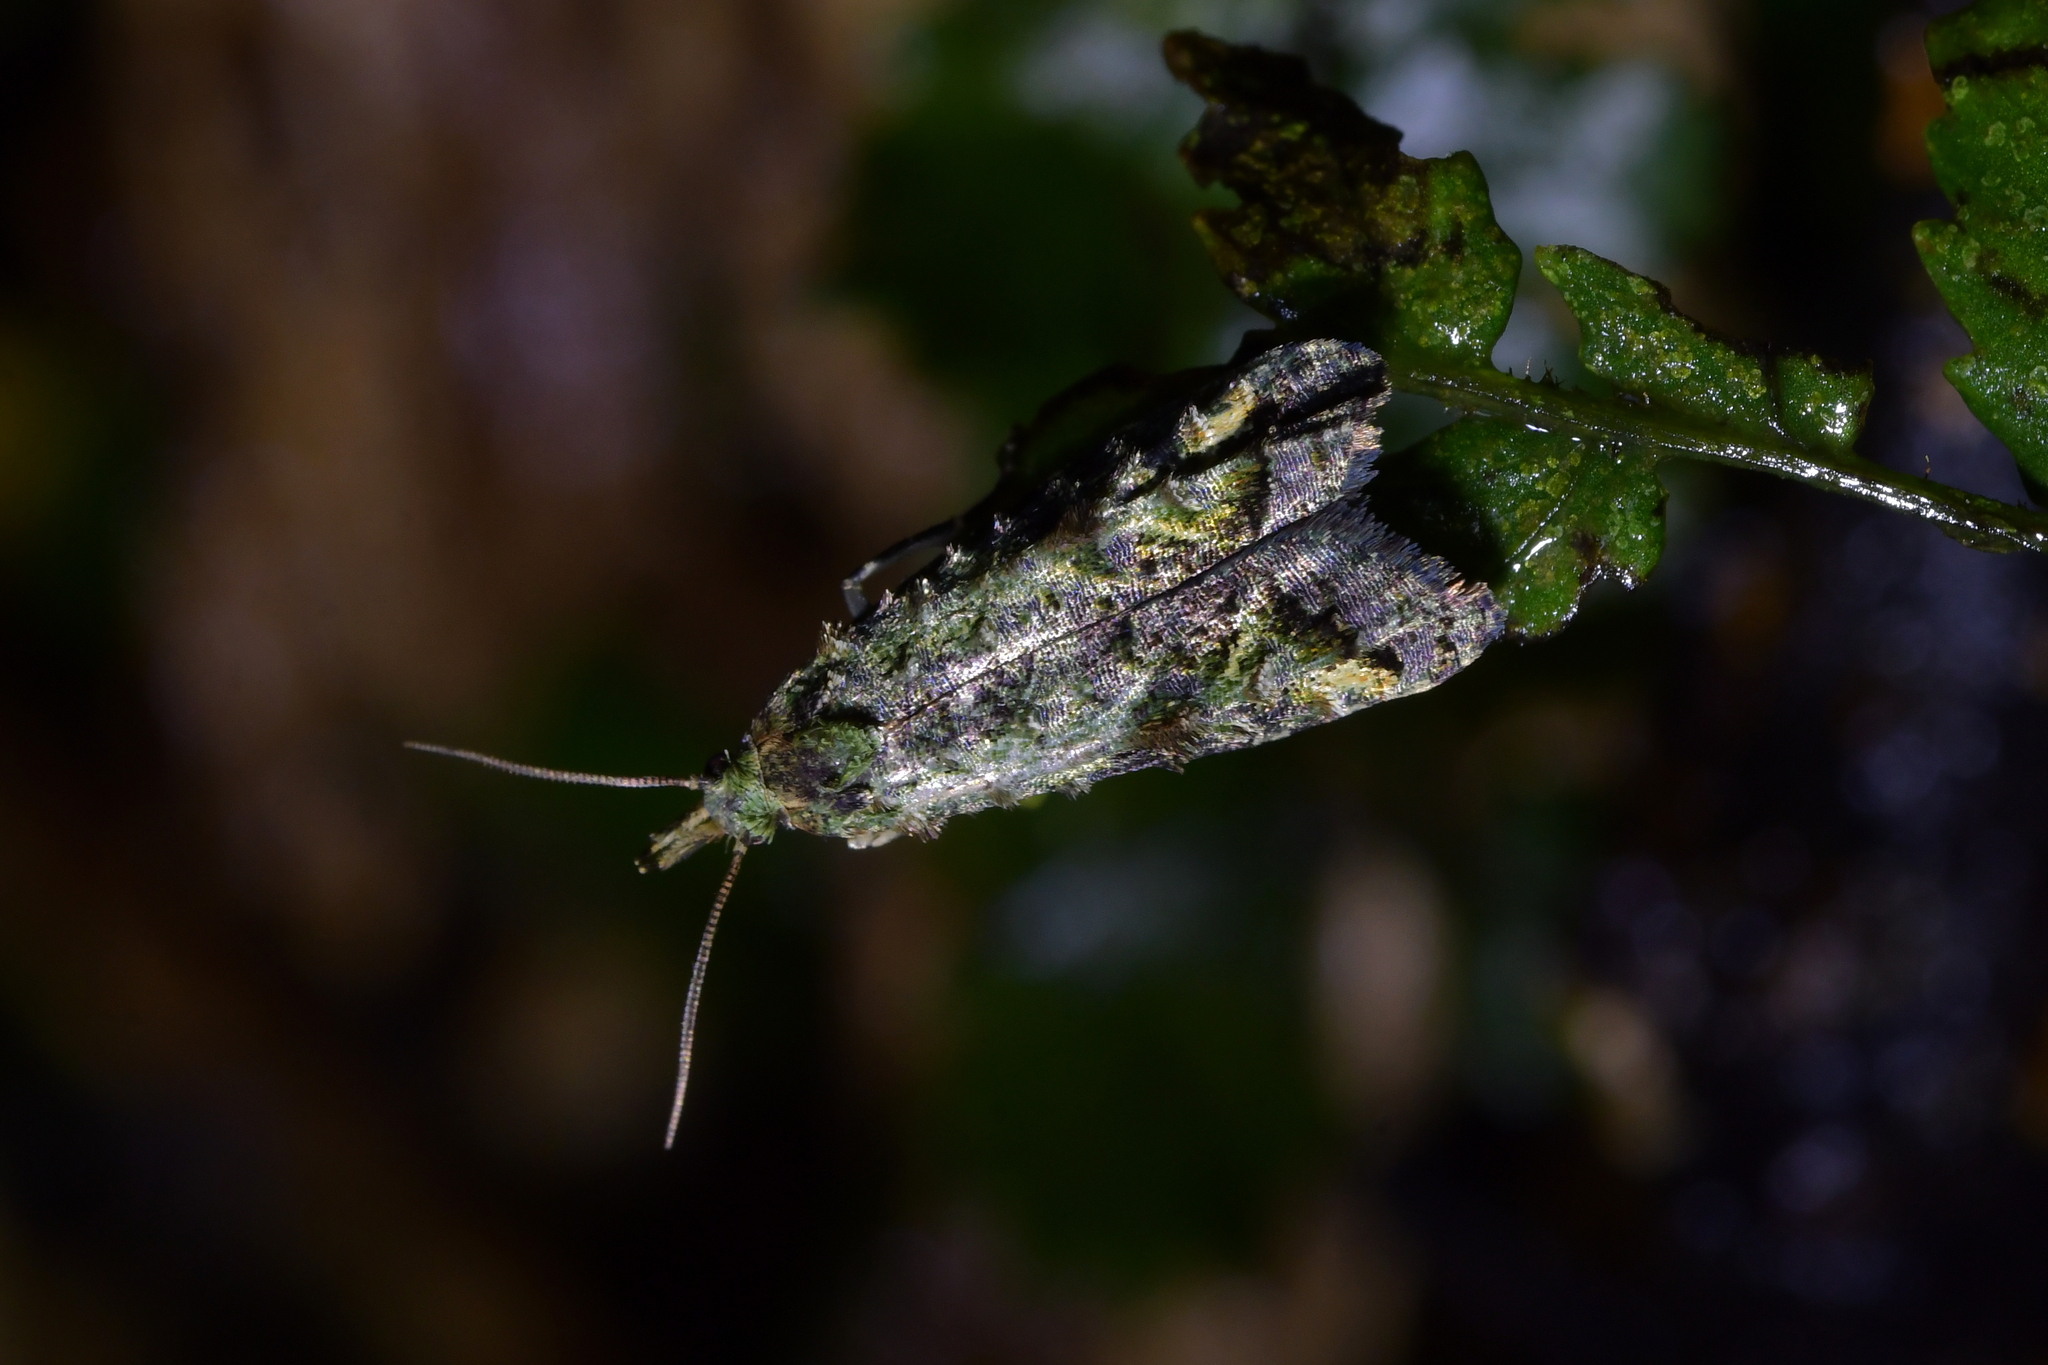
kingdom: Animalia
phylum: Arthropoda
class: Insecta
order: Lepidoptera
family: Copromorphidae
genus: Phycomorpha
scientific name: Phycomorpha metachrysa
